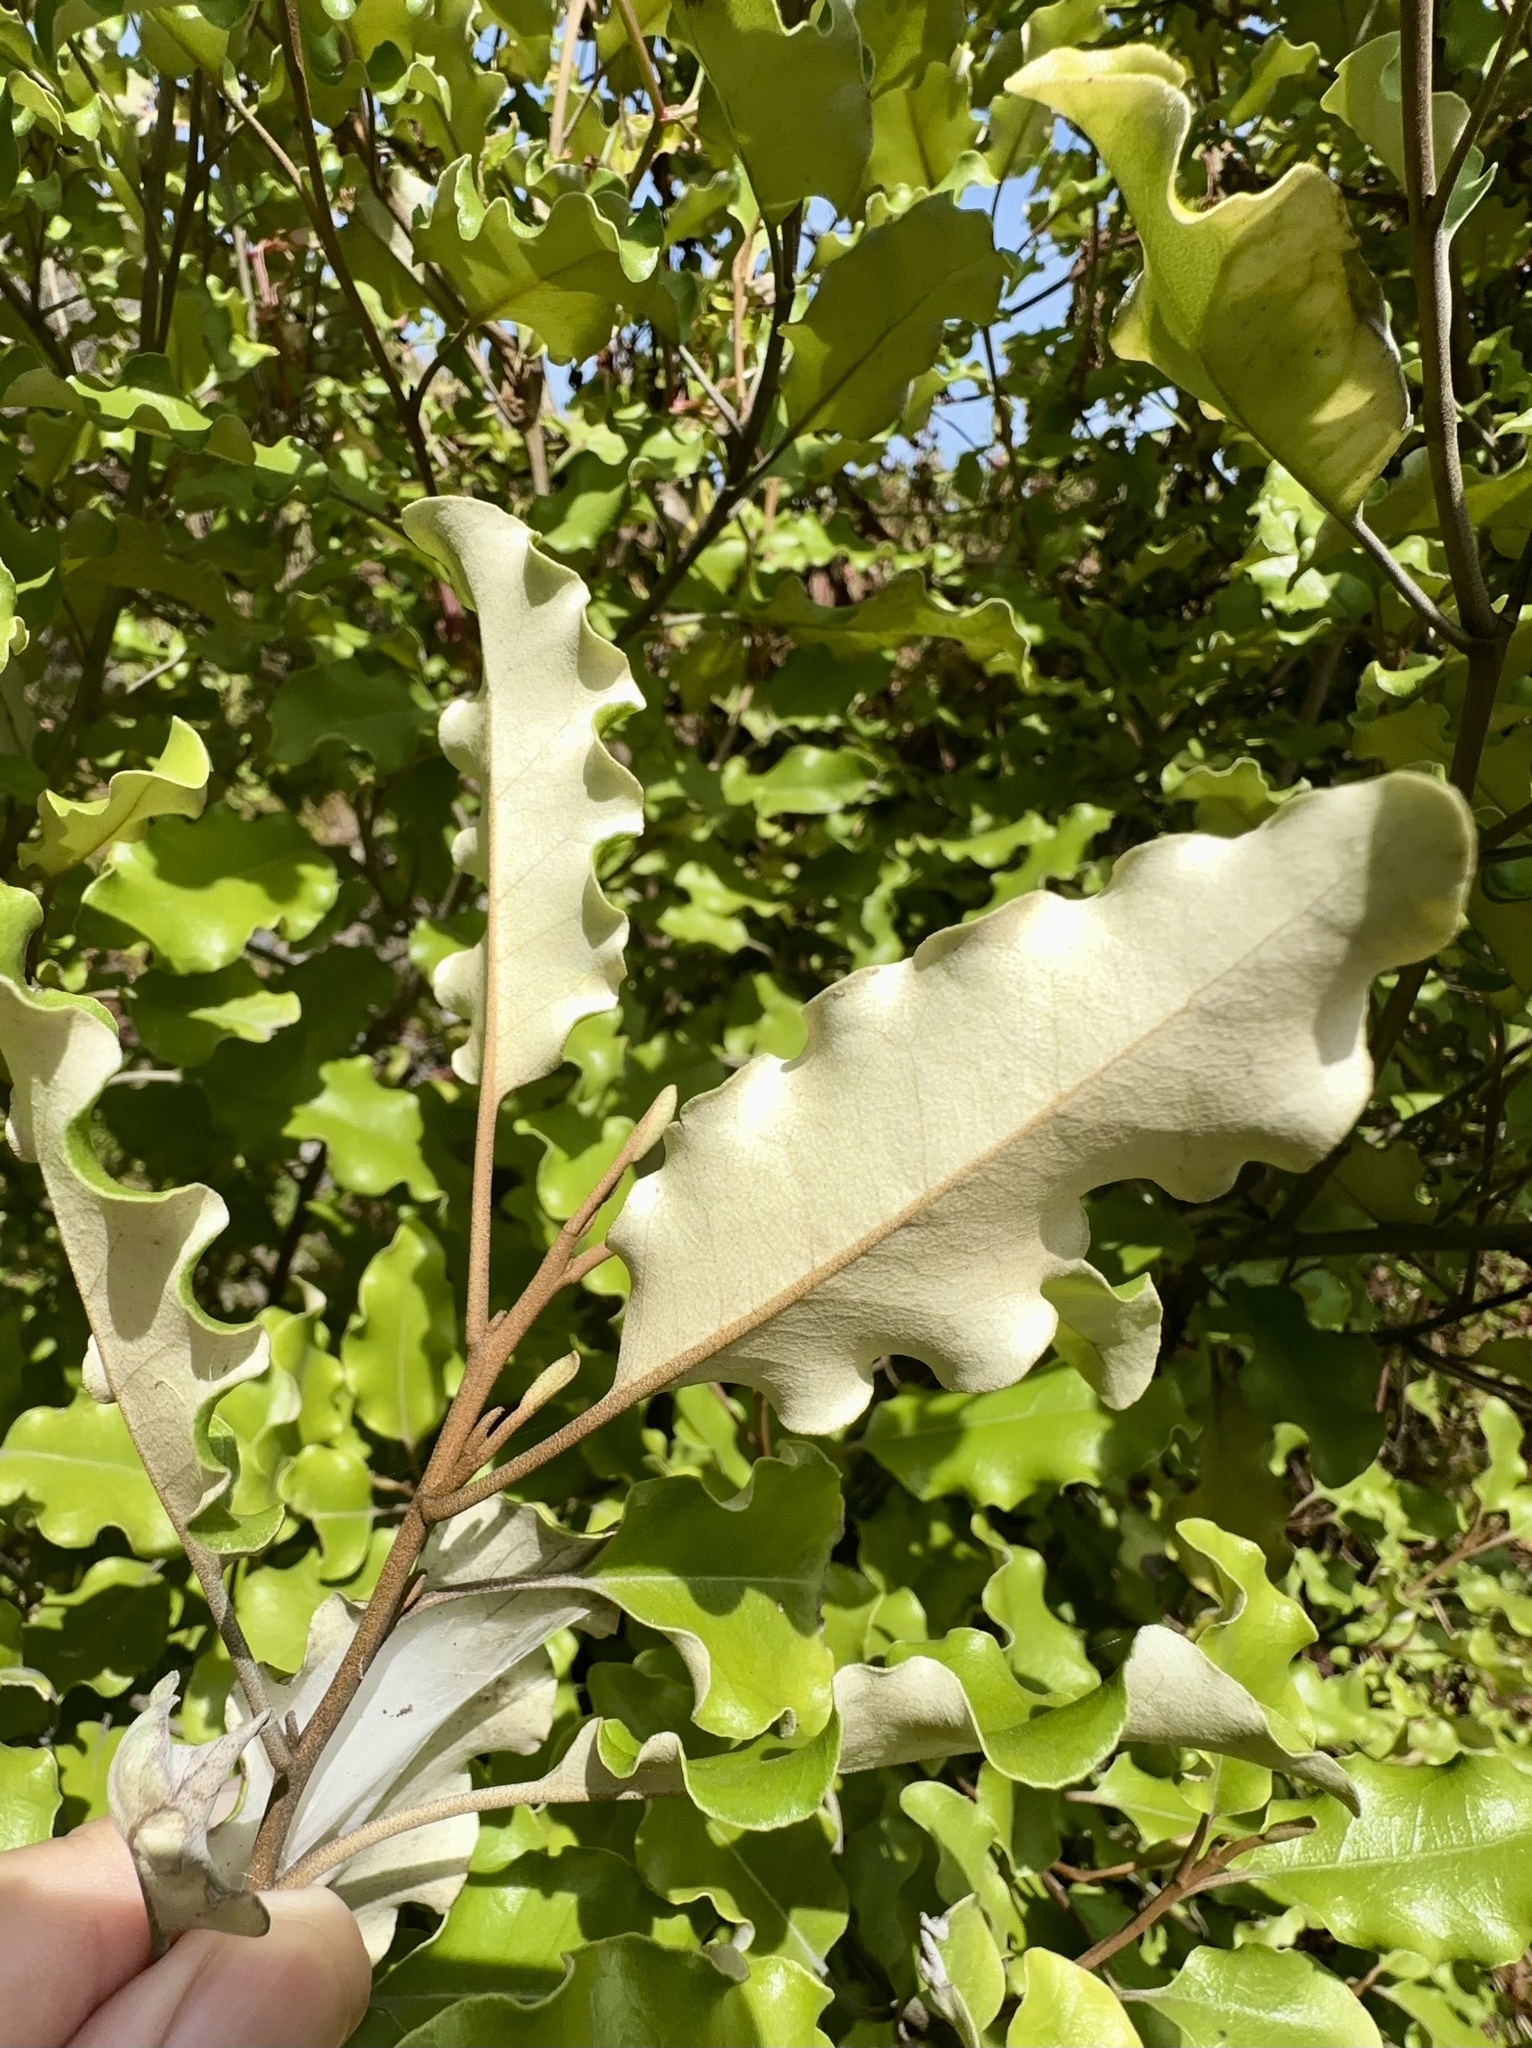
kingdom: Plantae
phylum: Tracheophyta
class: Magnoliopsida
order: Asterales
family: Asteraceae
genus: Olearia
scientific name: Olearia paniculata
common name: Akiraho
